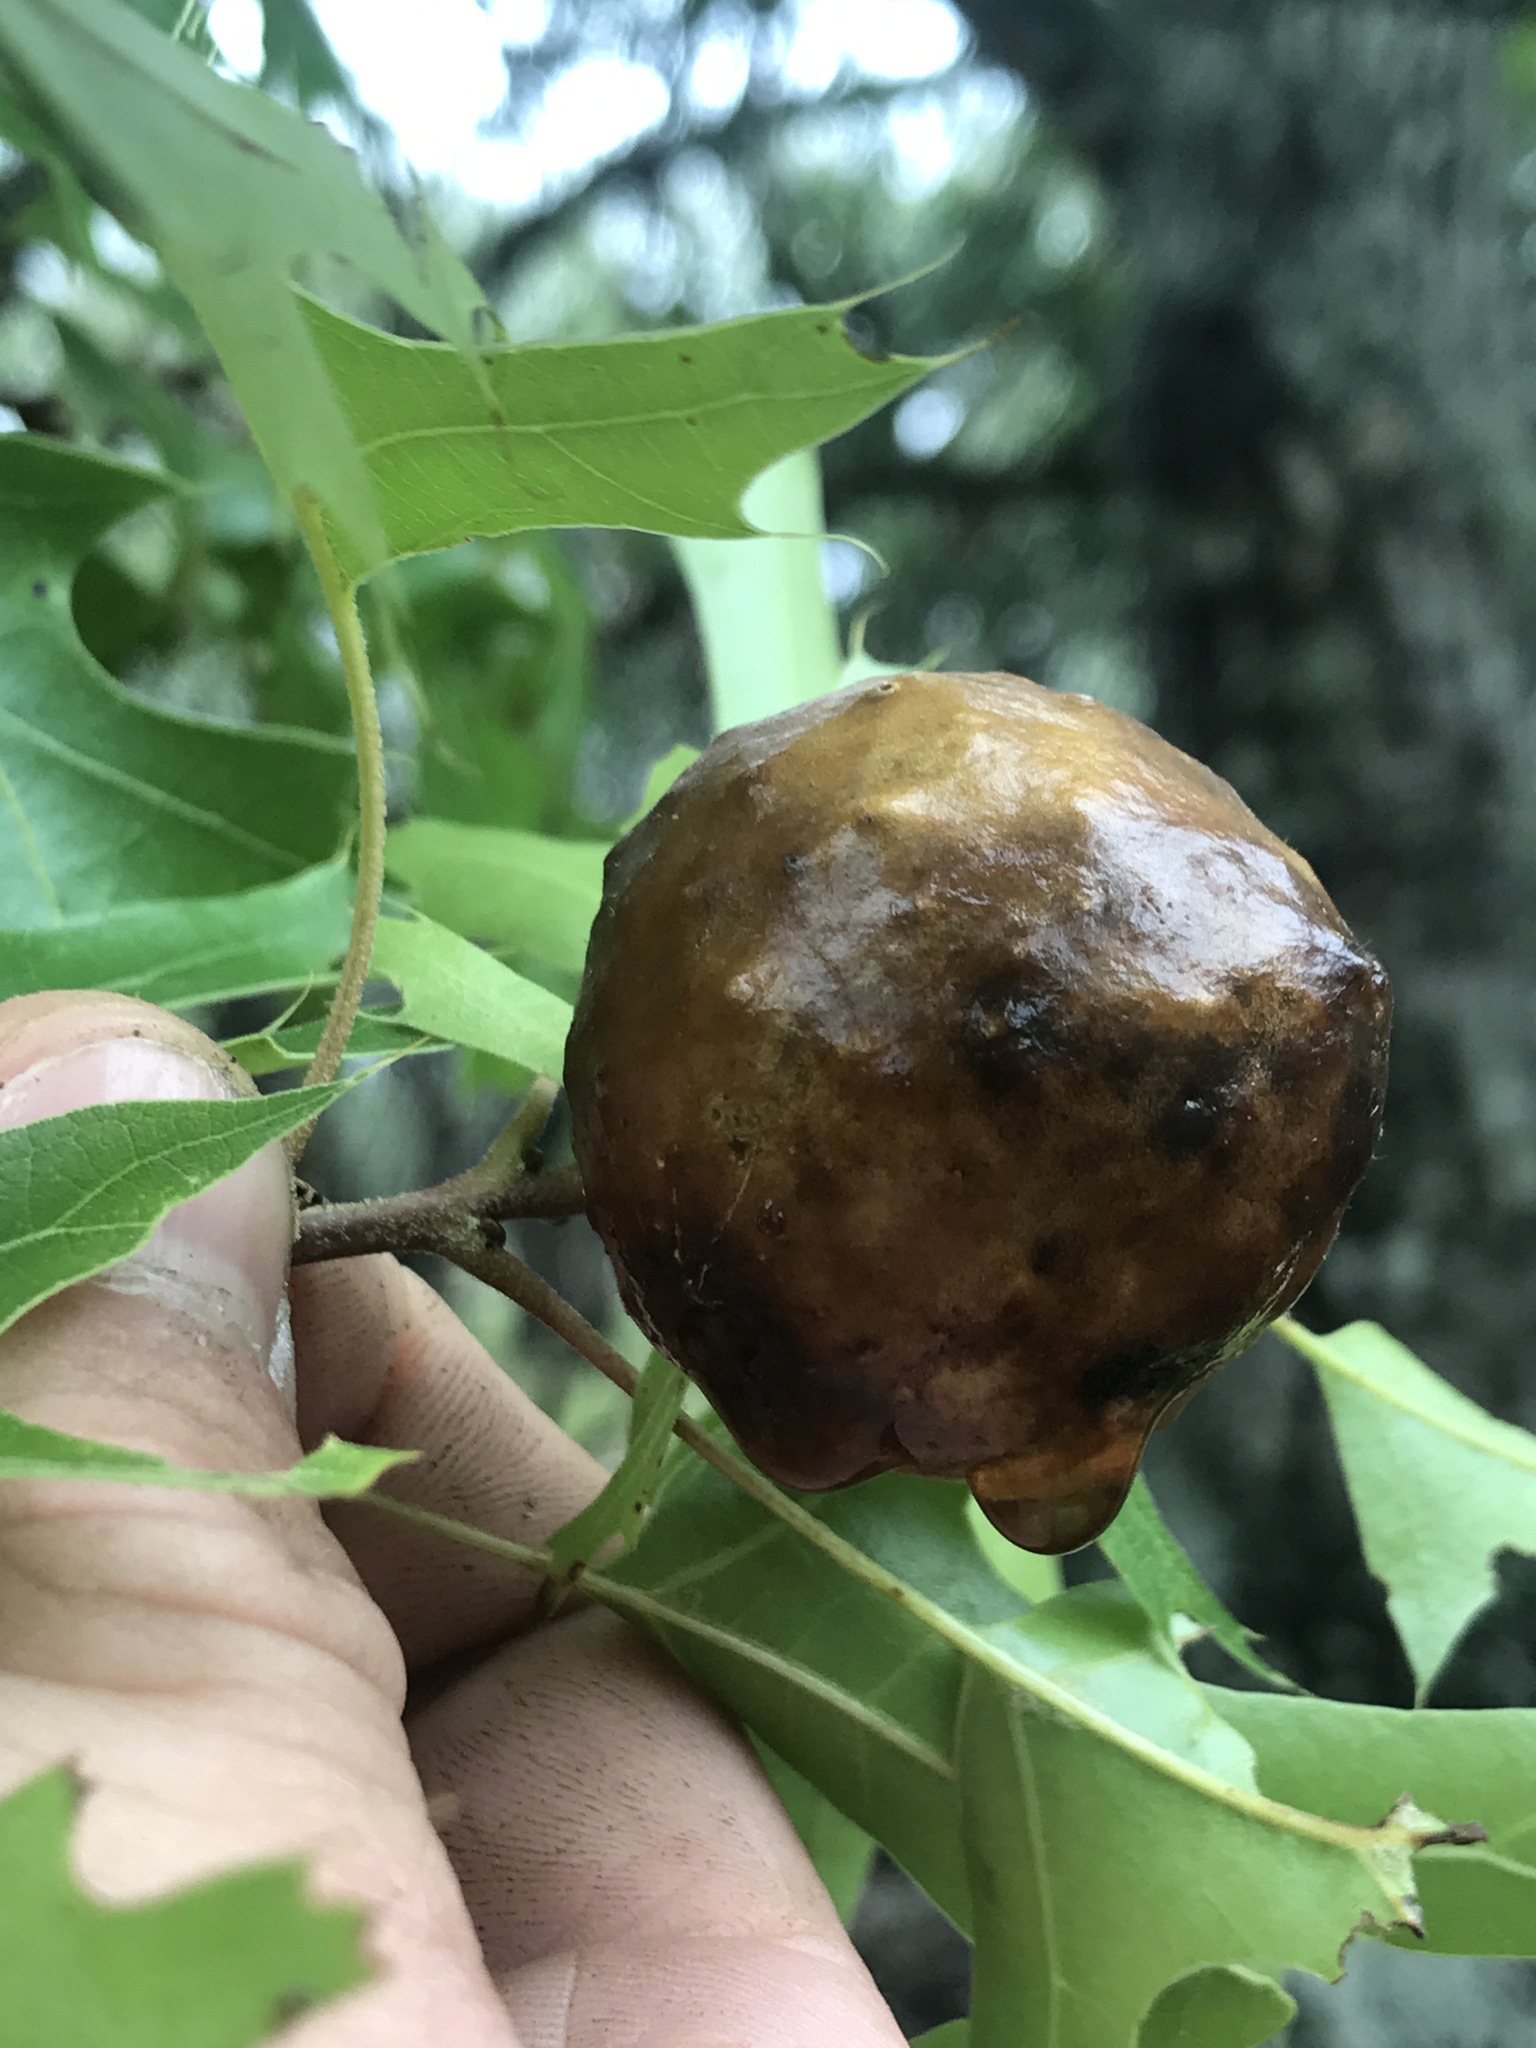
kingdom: Animalia
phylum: Arthropoda
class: Insecta
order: Hymenoptera
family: Cynipidae
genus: Amphibolips
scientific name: Amphibolips
